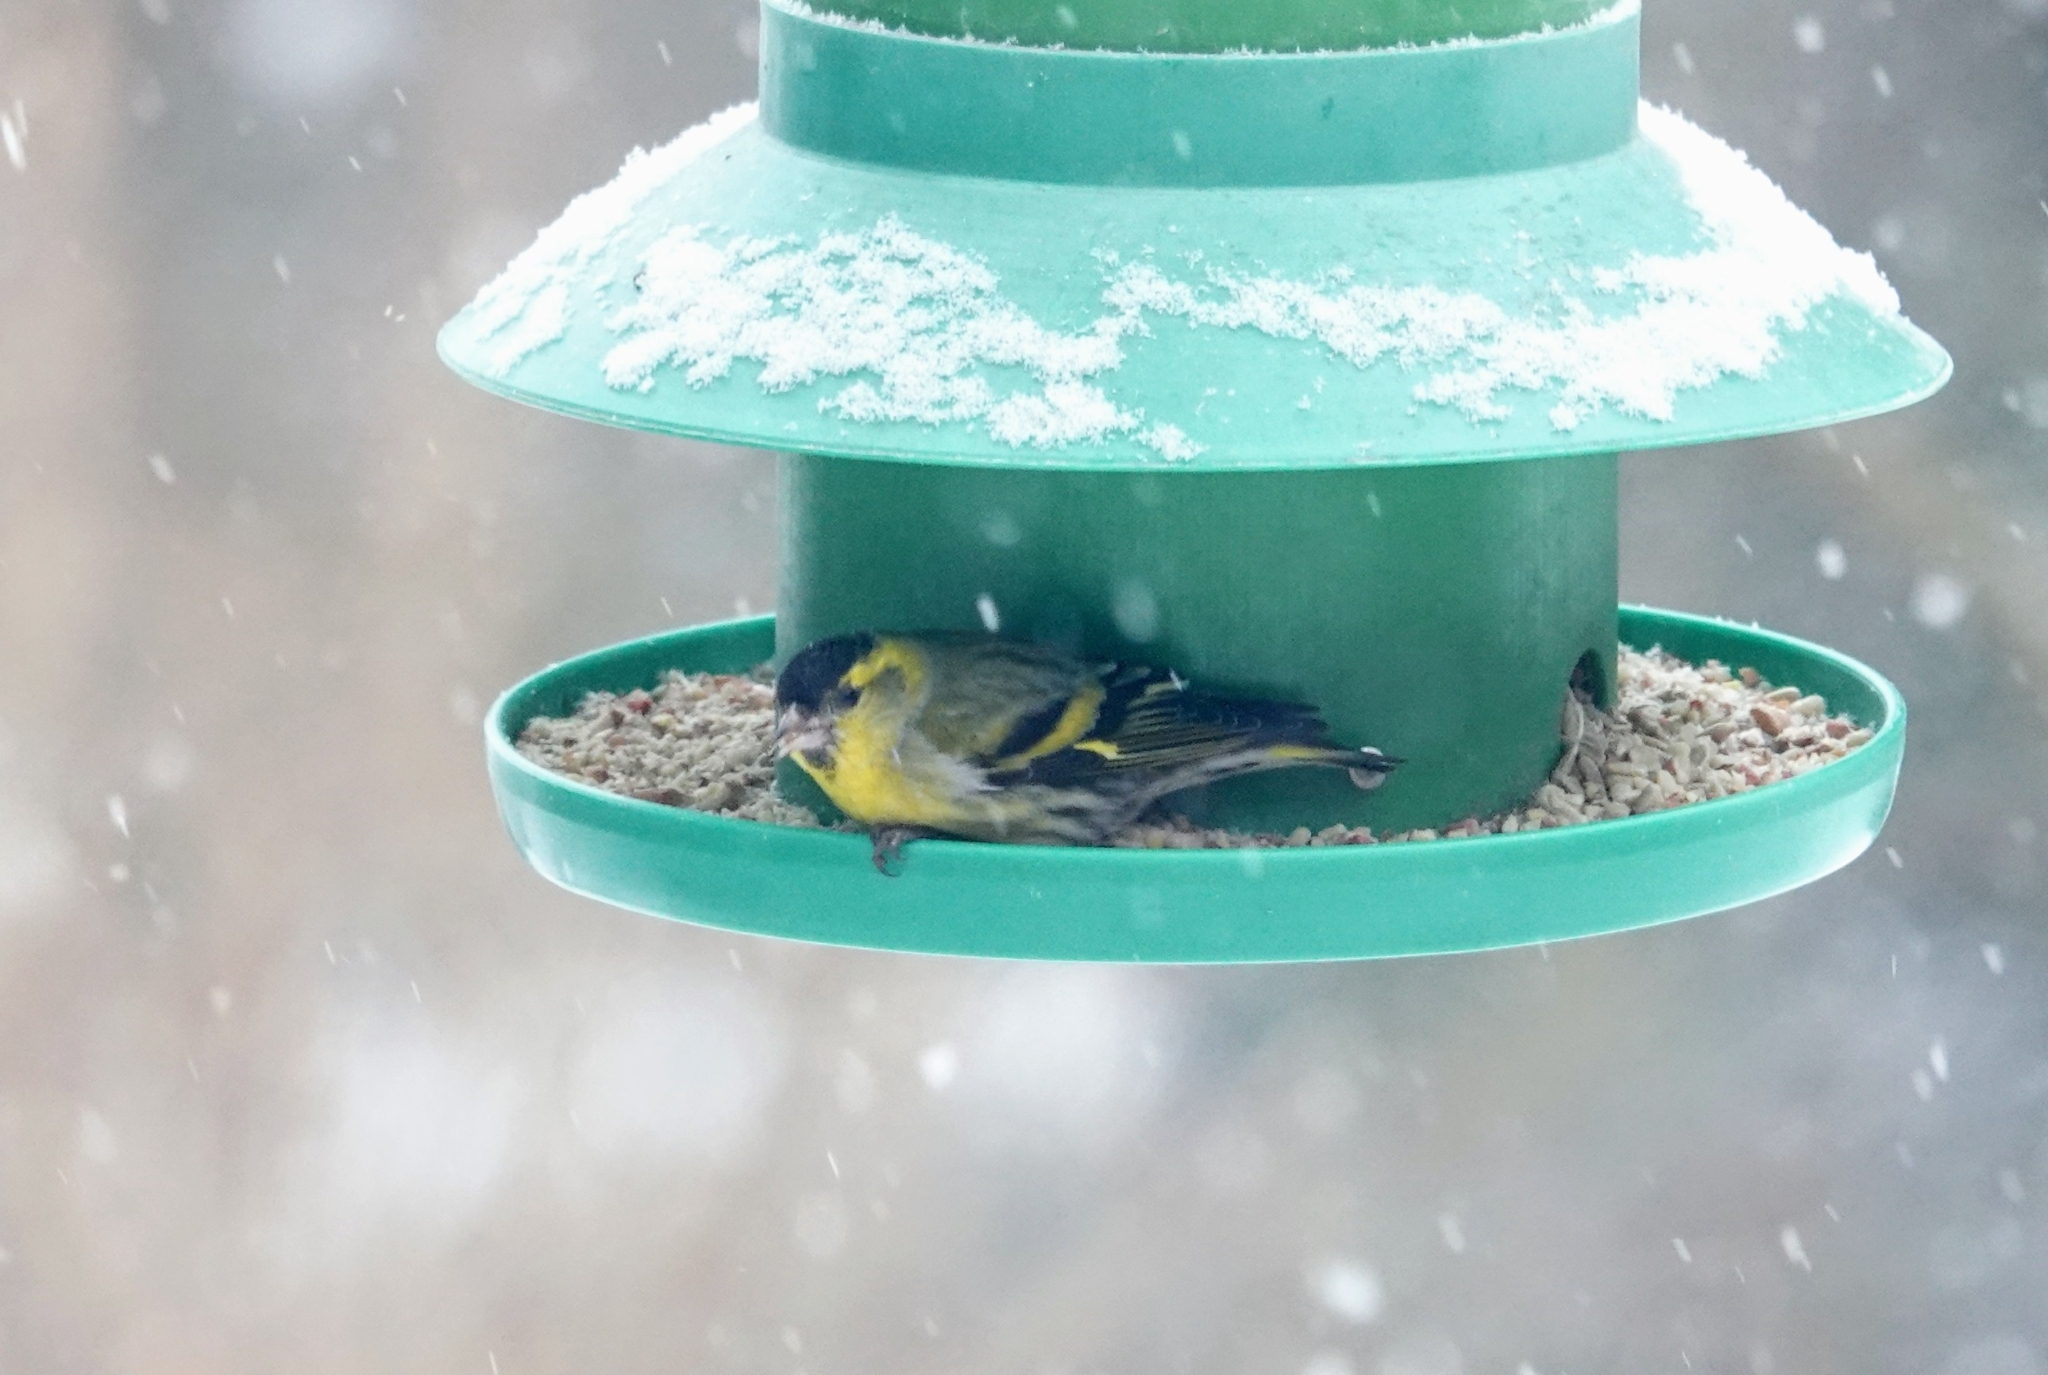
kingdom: Animalia
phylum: Chordata
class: Aves
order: Passeriformes
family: Fringillidae
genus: Spinus
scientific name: Spinus spinus
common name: Eurasian siskin
